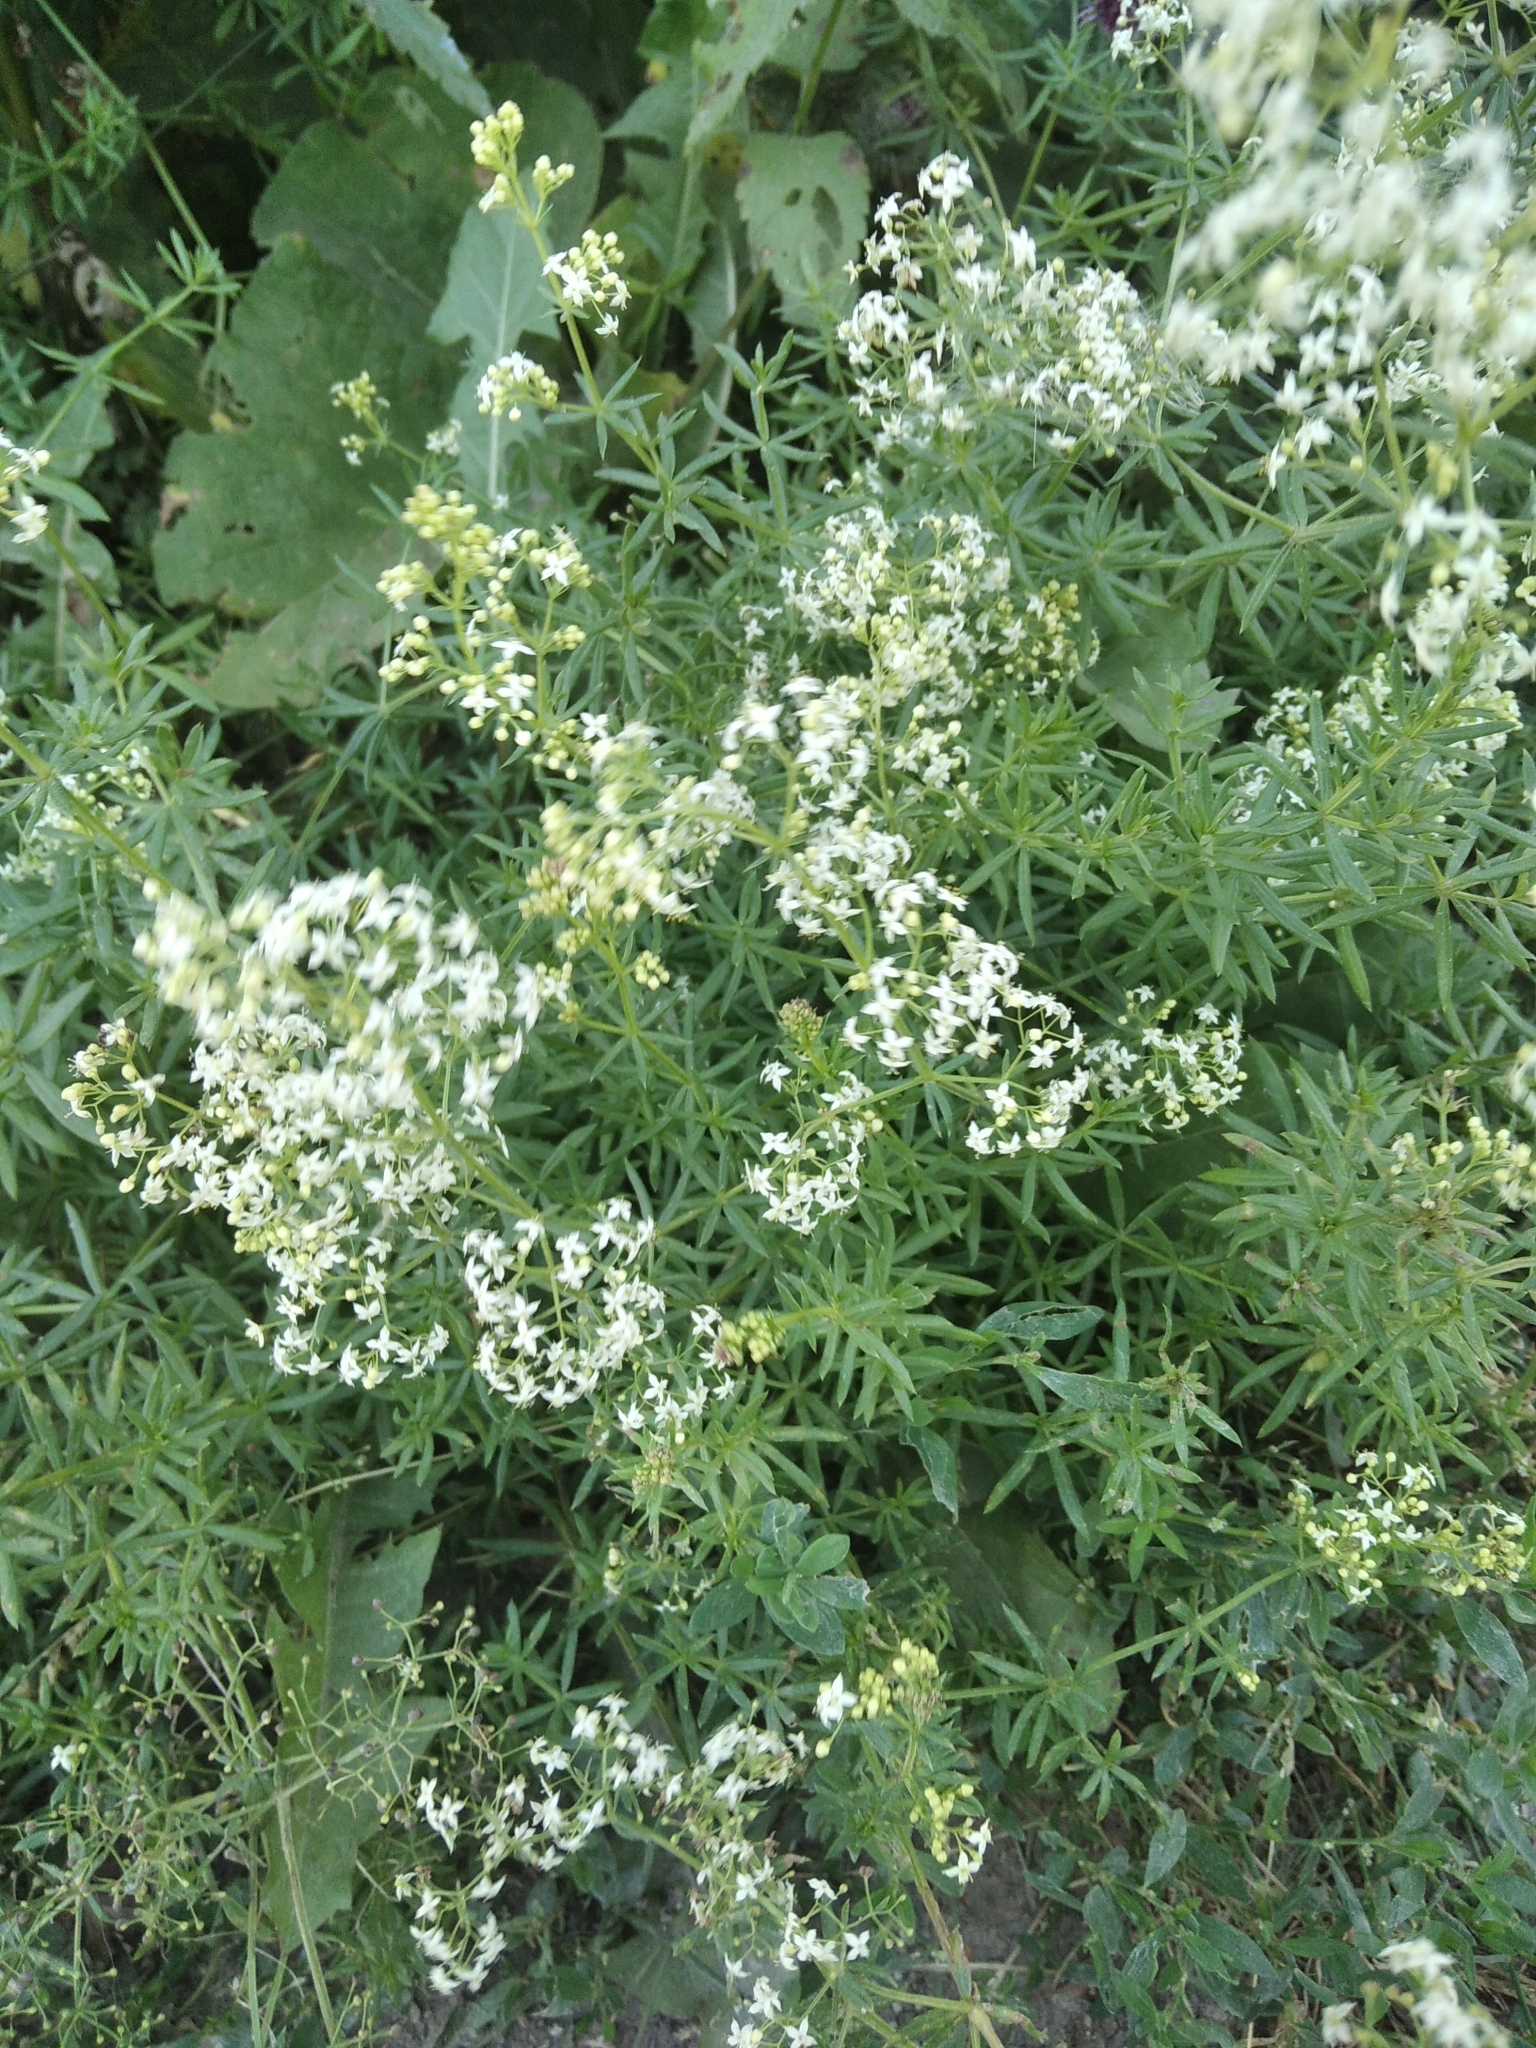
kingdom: Plantae
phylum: Tracheophyta
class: Magnoliopsida
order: Gentianales
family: Rubiaceae
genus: Galium
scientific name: Galium mollugo
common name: Hedge bedstraw
